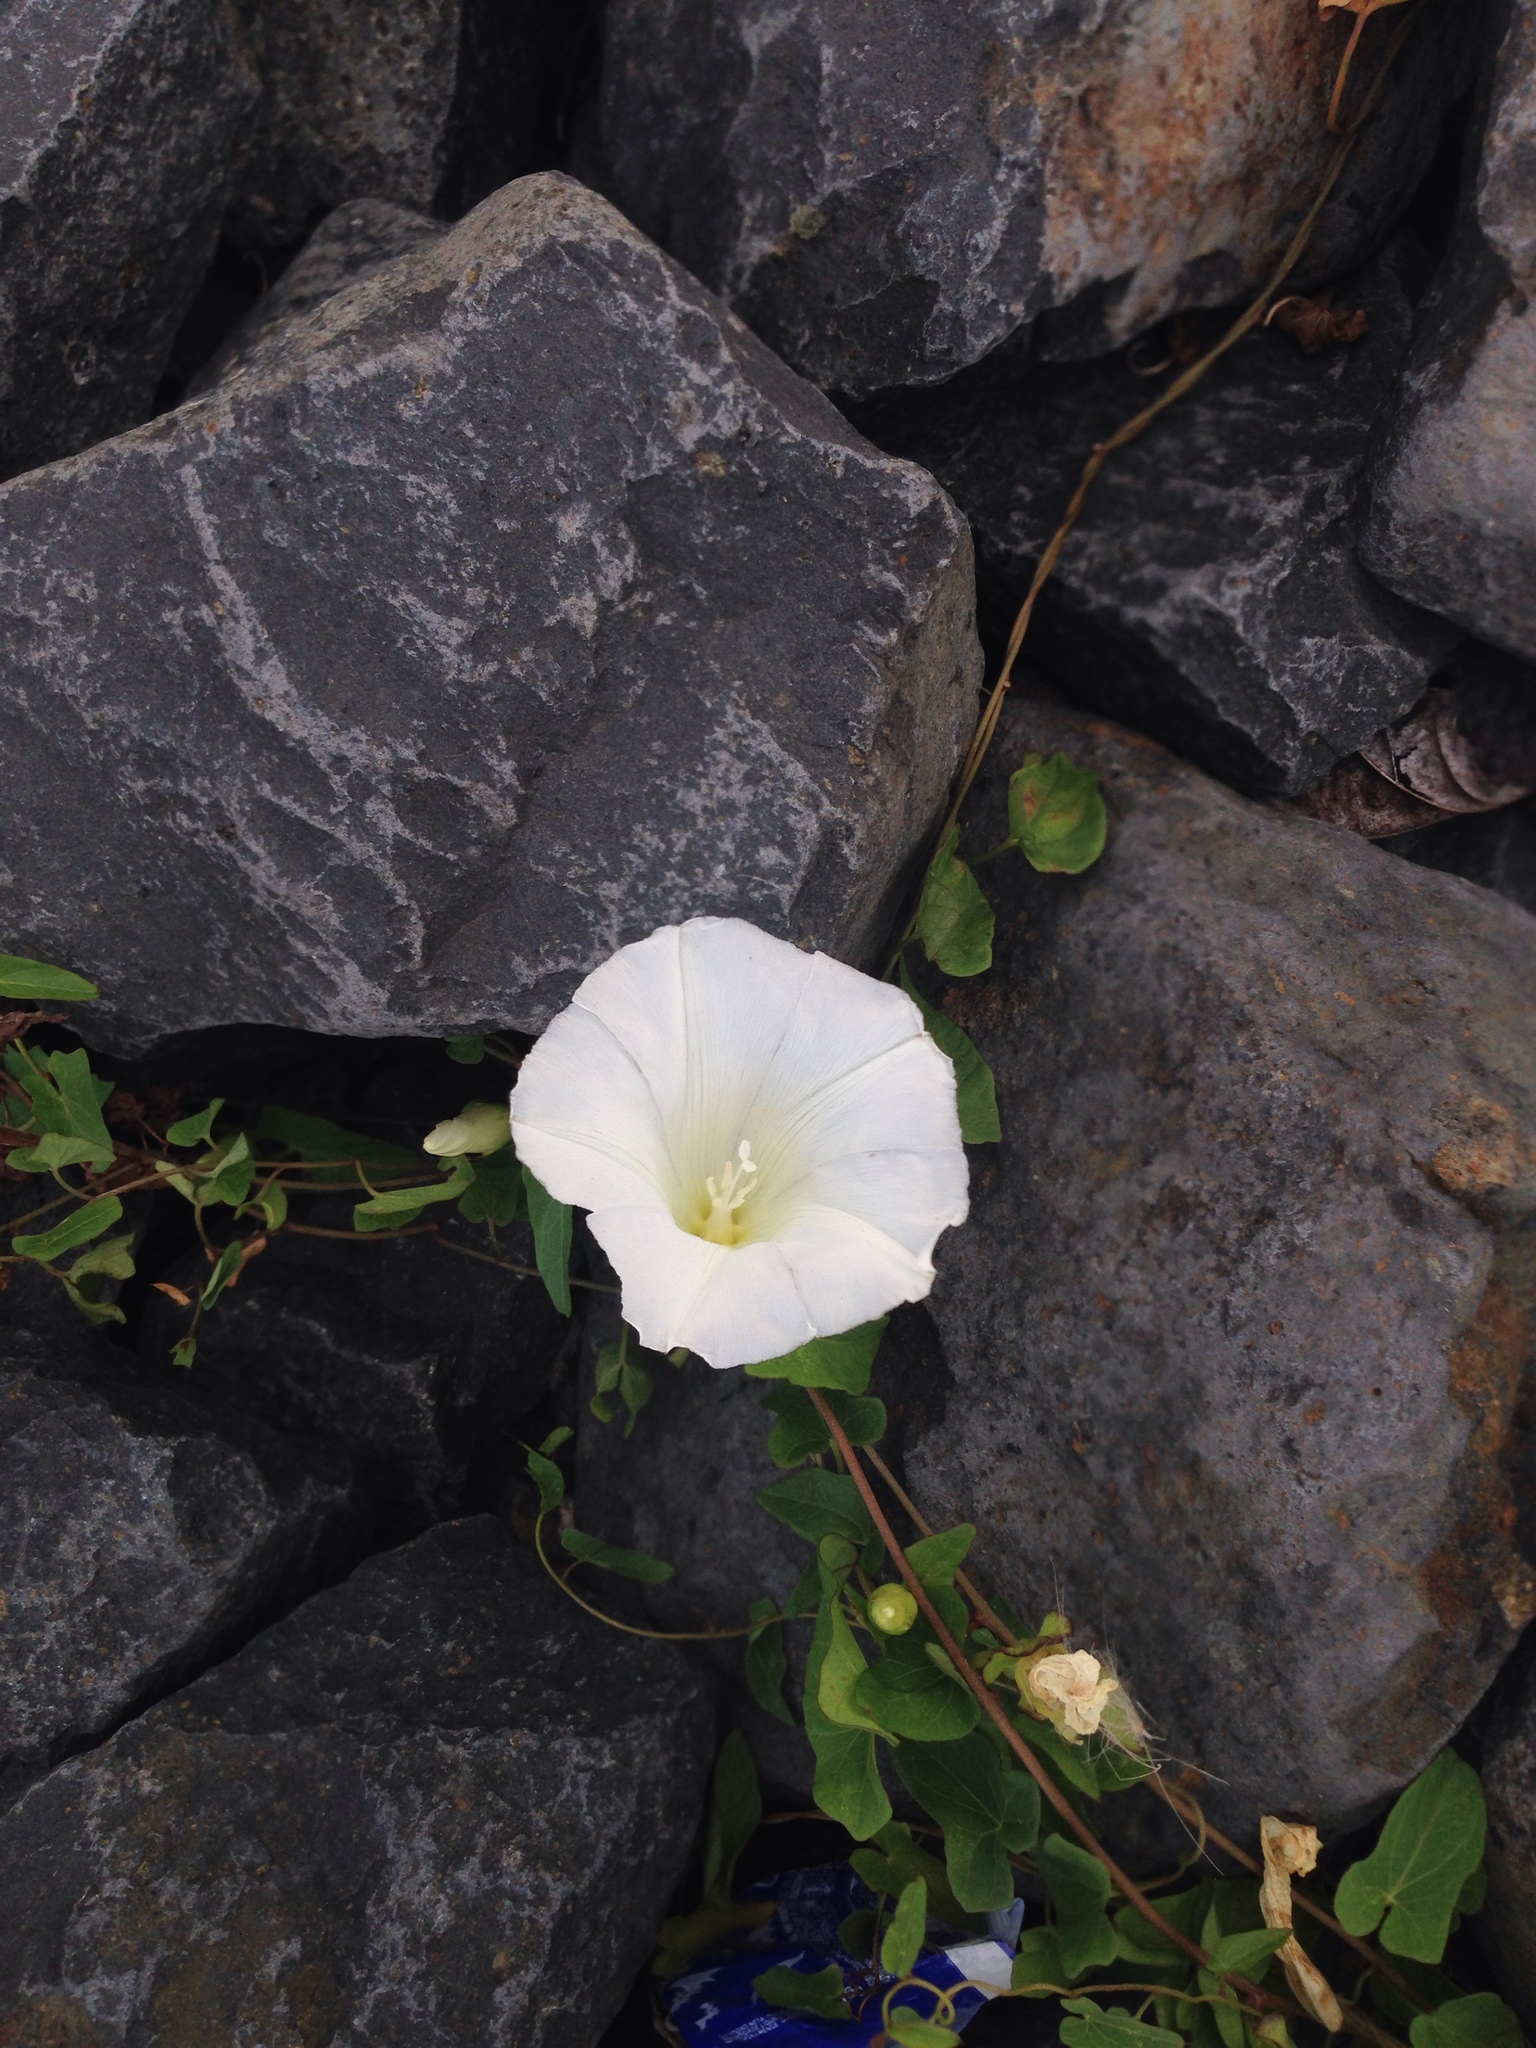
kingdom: Plantae
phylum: Tracheophyta
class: Magnoliopsida
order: Solanales
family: Convolvulaceae
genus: Calystegia
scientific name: Calystegia sepium
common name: Hedge bindweed
